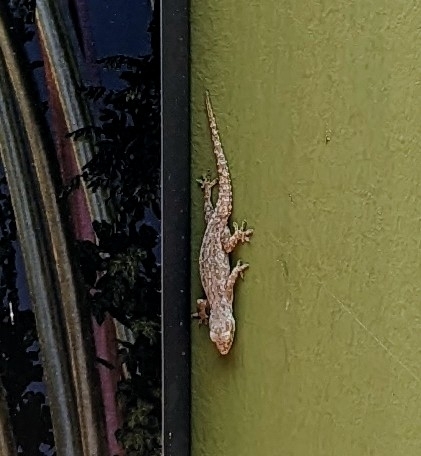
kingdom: Animalia
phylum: Chordata
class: Squamata
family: Gekkonidae
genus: Hemidactylus
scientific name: Hemidactylus frenatus
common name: Common house gecko
